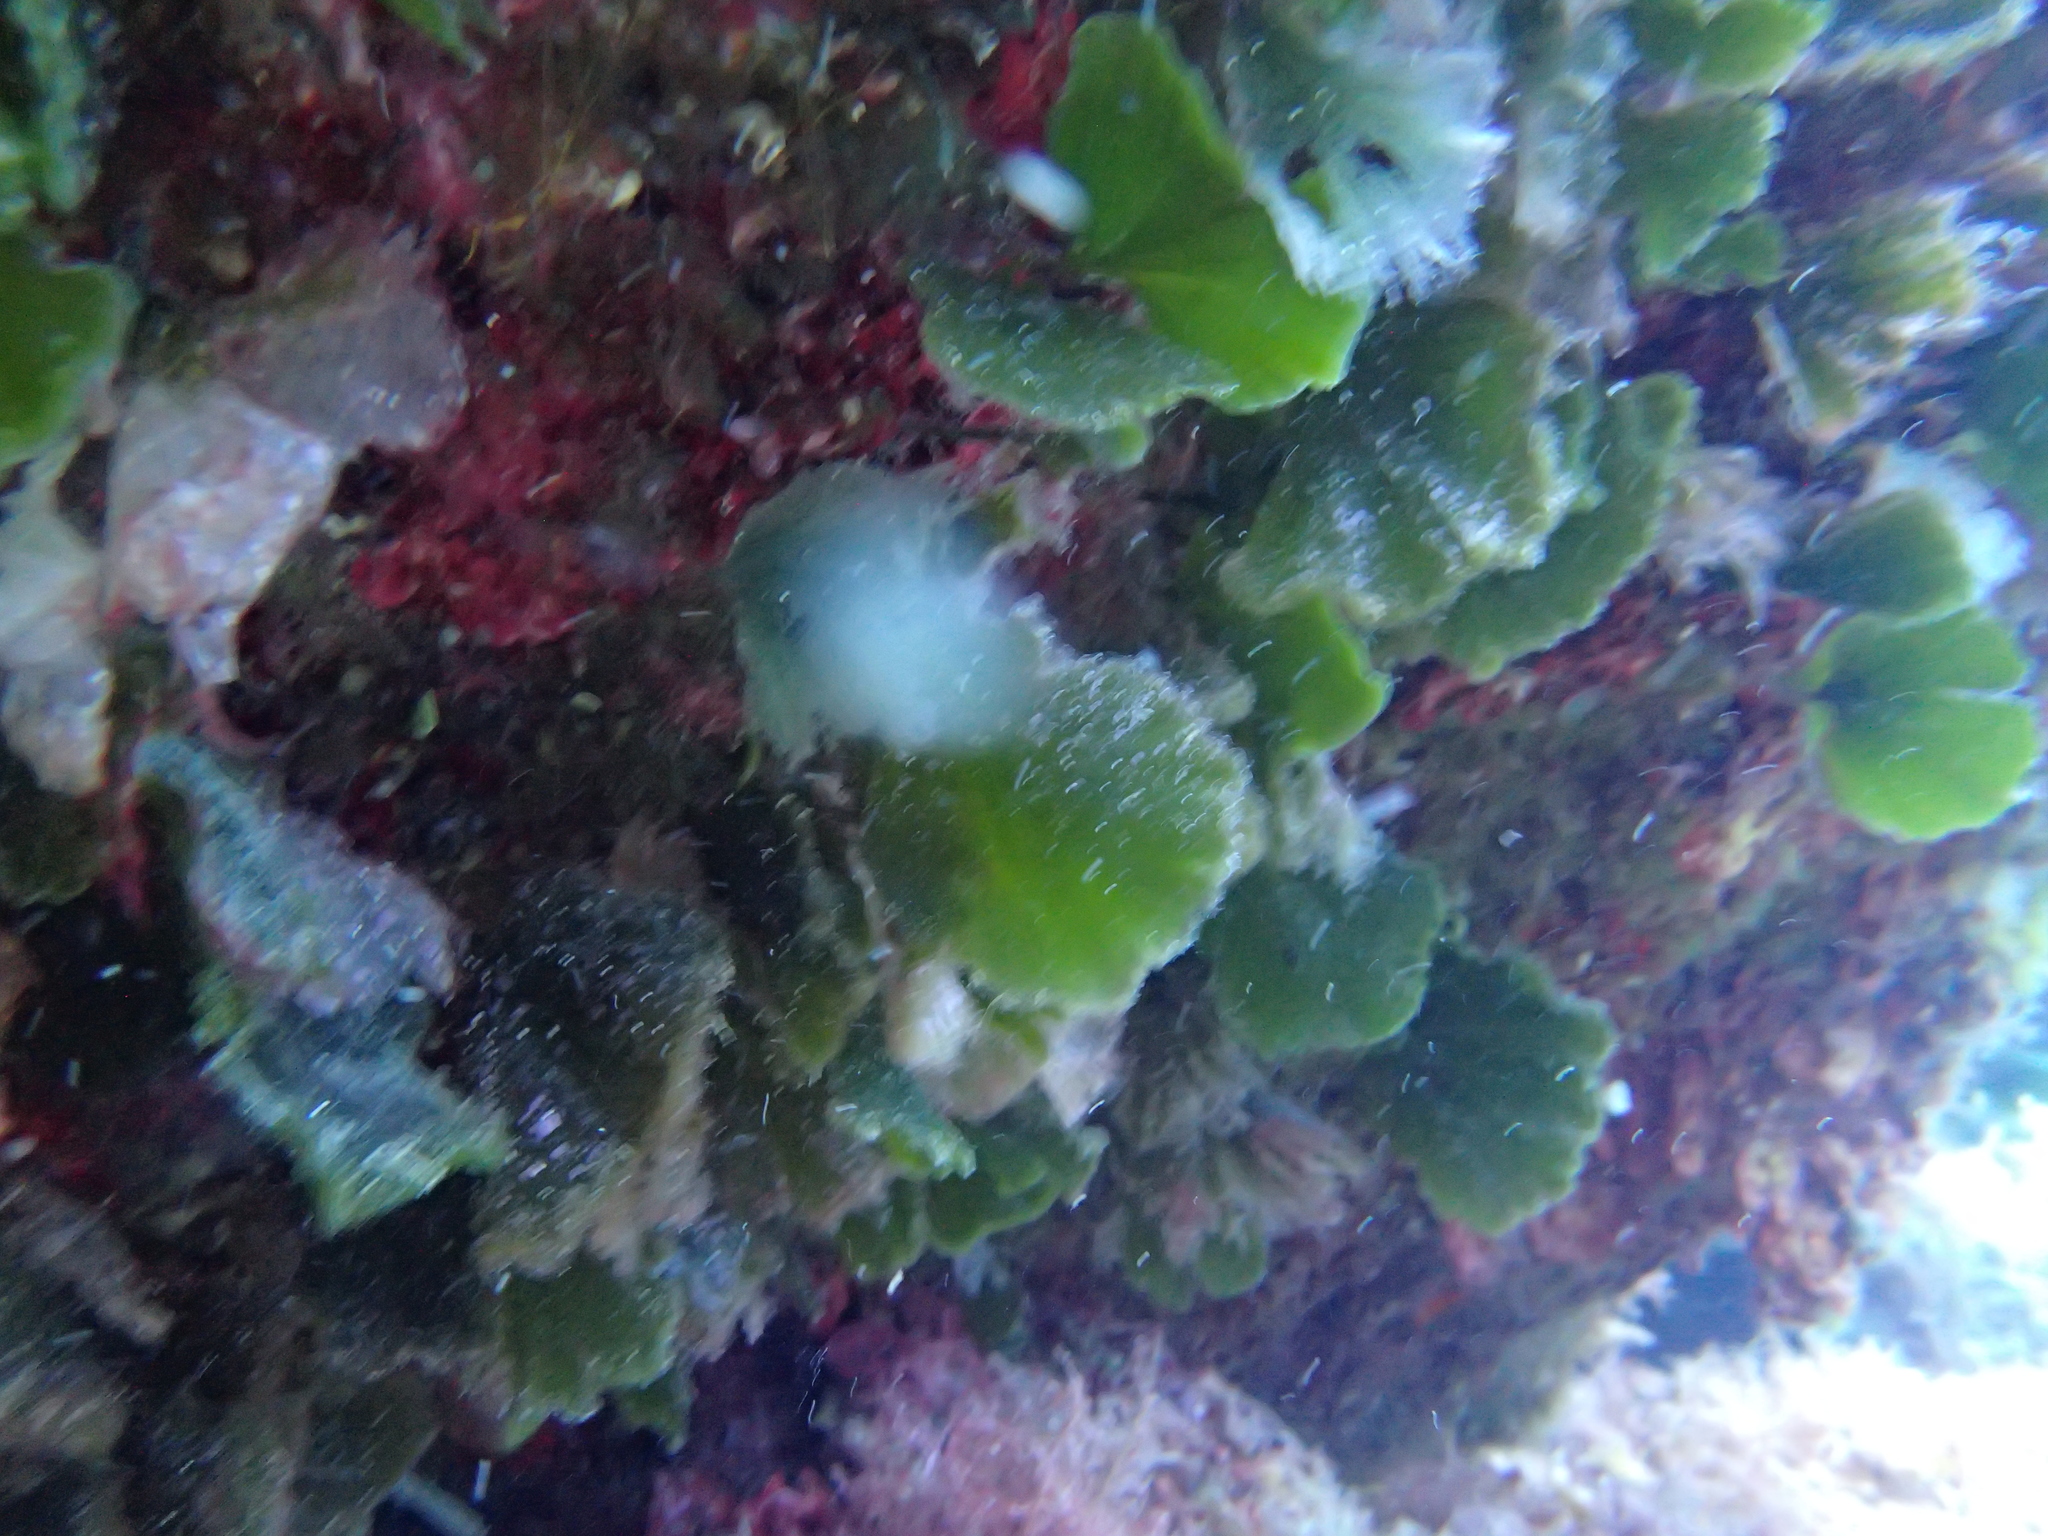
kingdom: Plantae
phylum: Chlorophyta
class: Ulvophyceae
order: Bryopsidales
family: Codiaceae
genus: Codium
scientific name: Codium Flabellia petiolata
